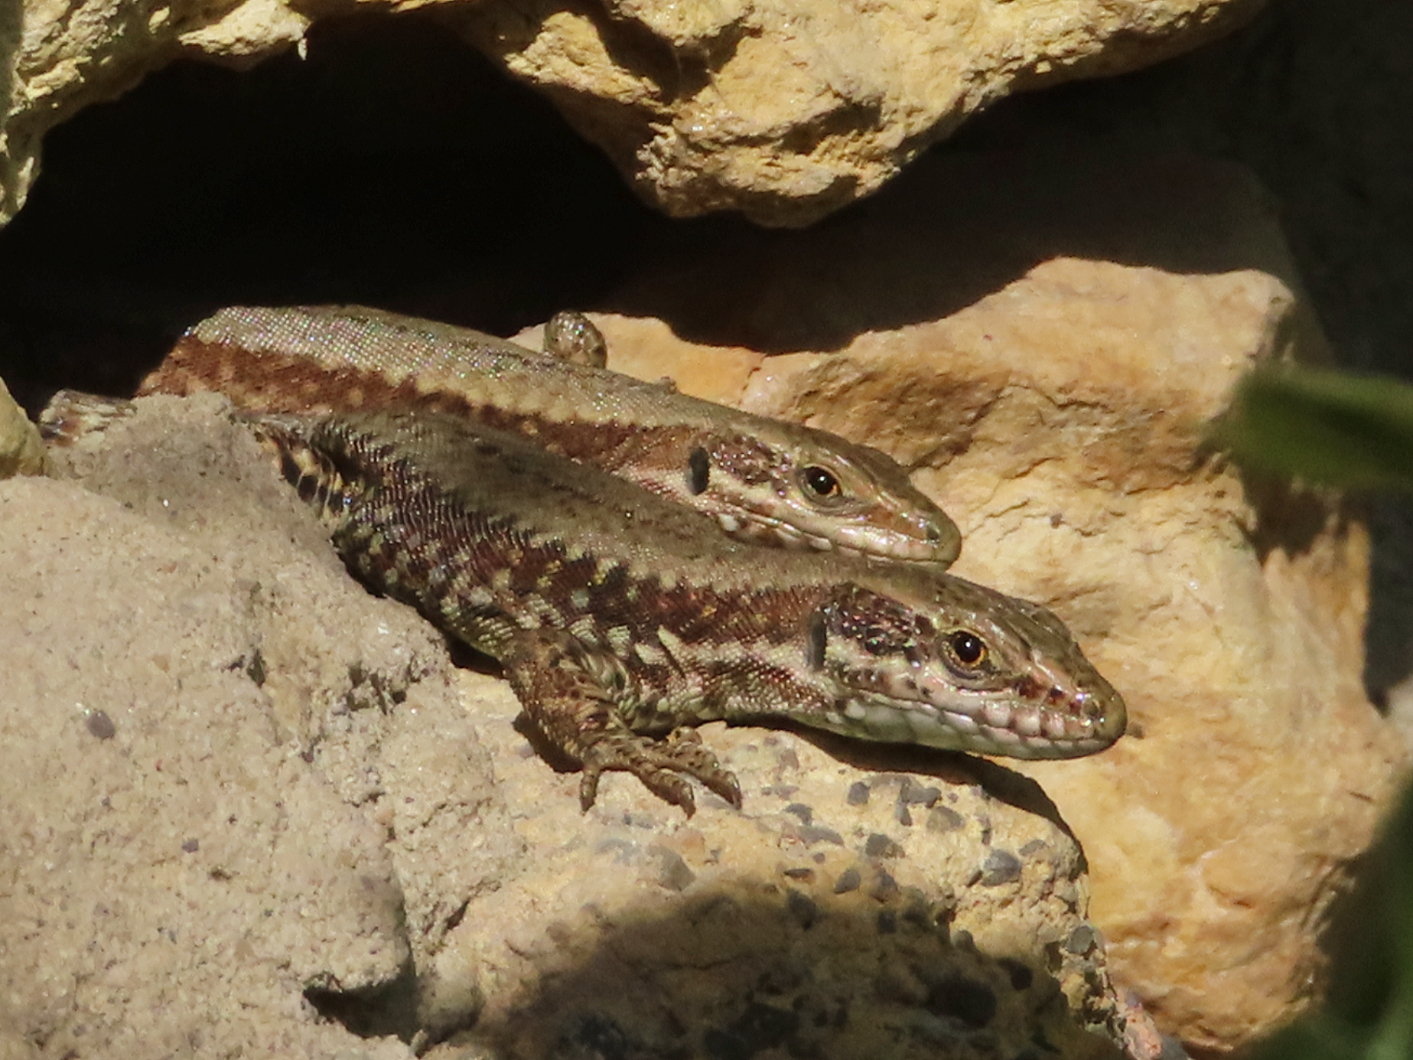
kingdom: Animalia
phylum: Chordata
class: Squamata
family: Lacertidae
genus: Podarcis
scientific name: Podarcis muralis
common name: Common wall lizard
